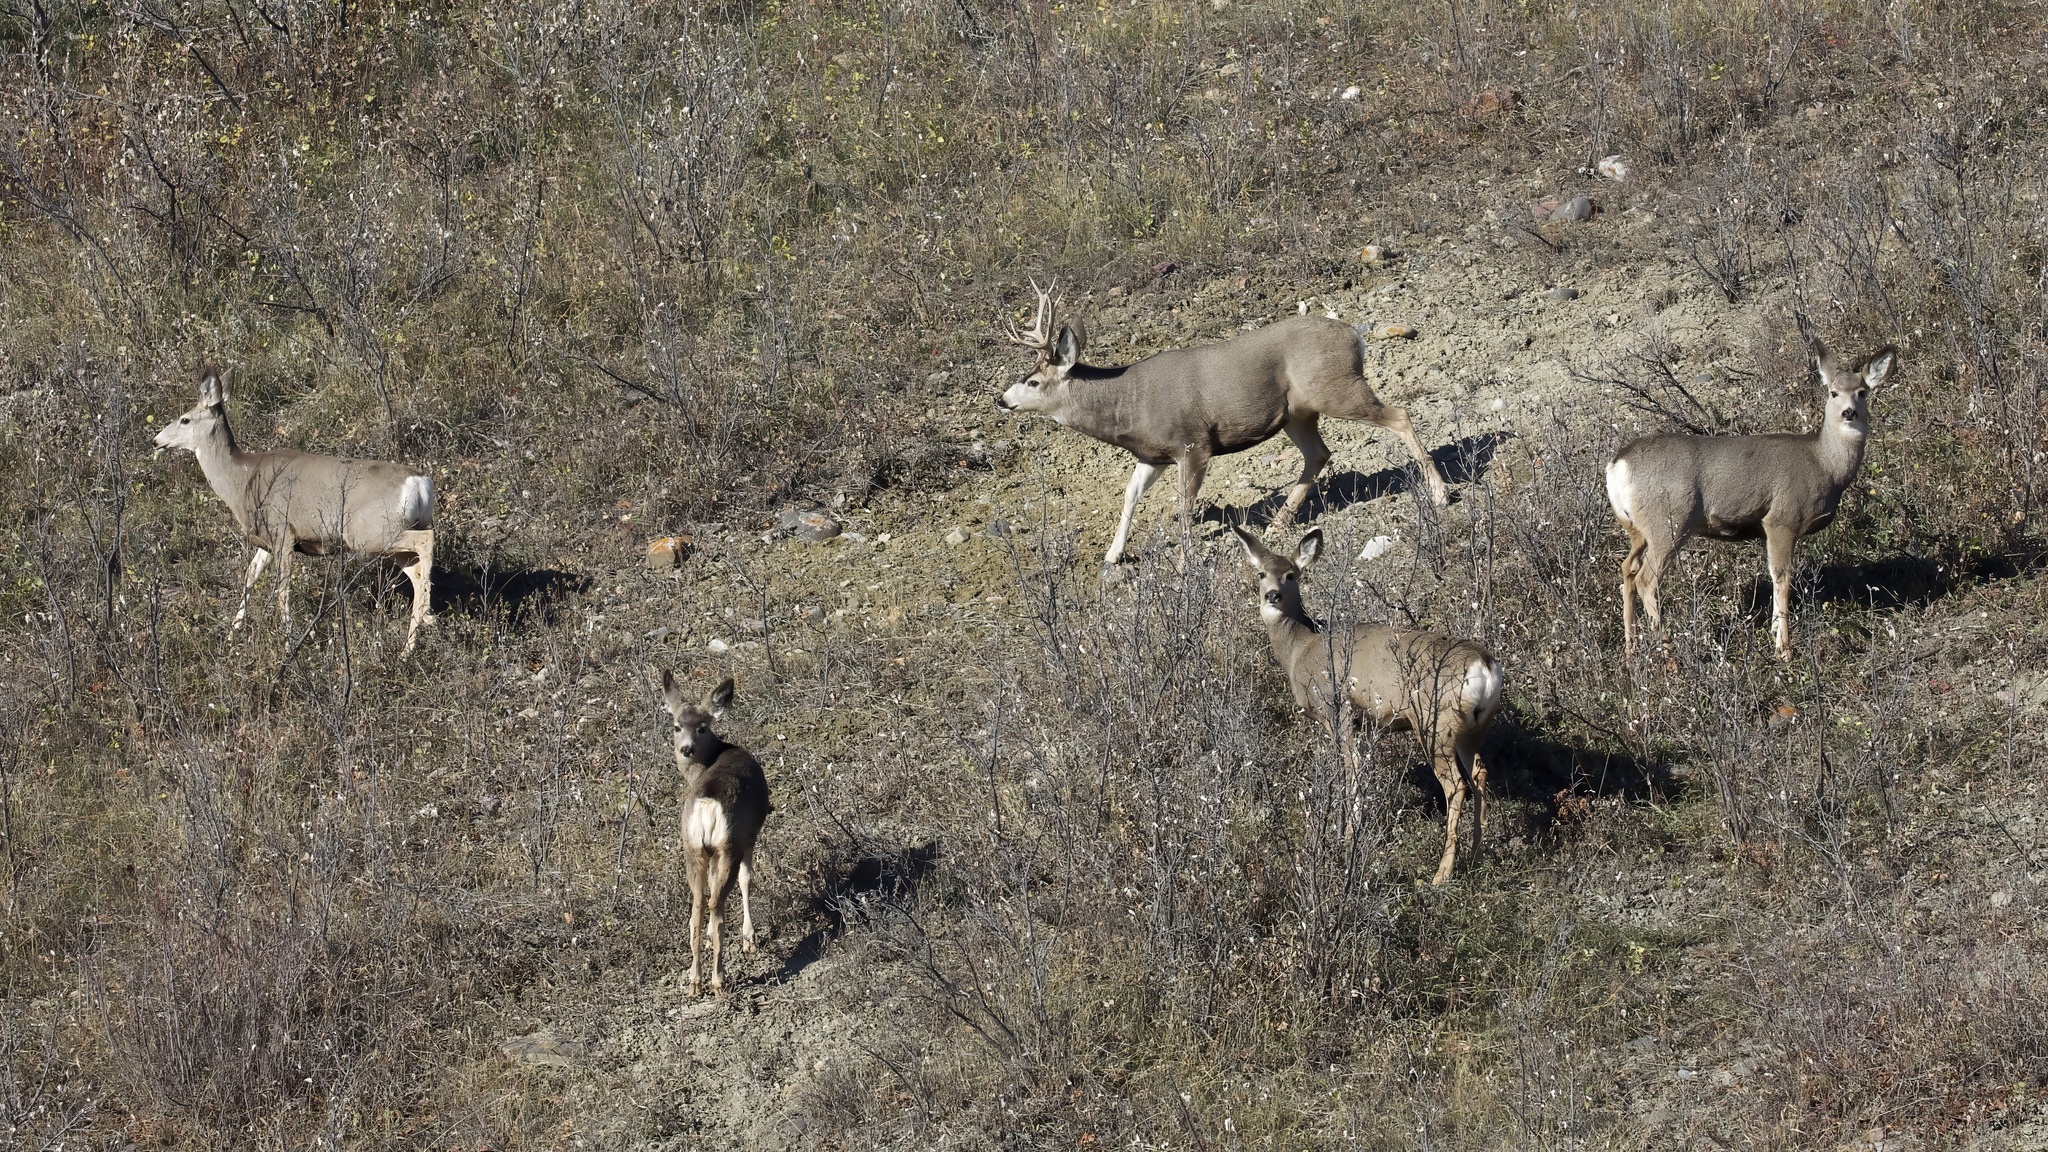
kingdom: Animalia
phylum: Chordata
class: Mammalia
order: Artiodactyla
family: Cervidae
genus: Odocoileus
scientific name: Odocoileus hemionus
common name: Mule deer
